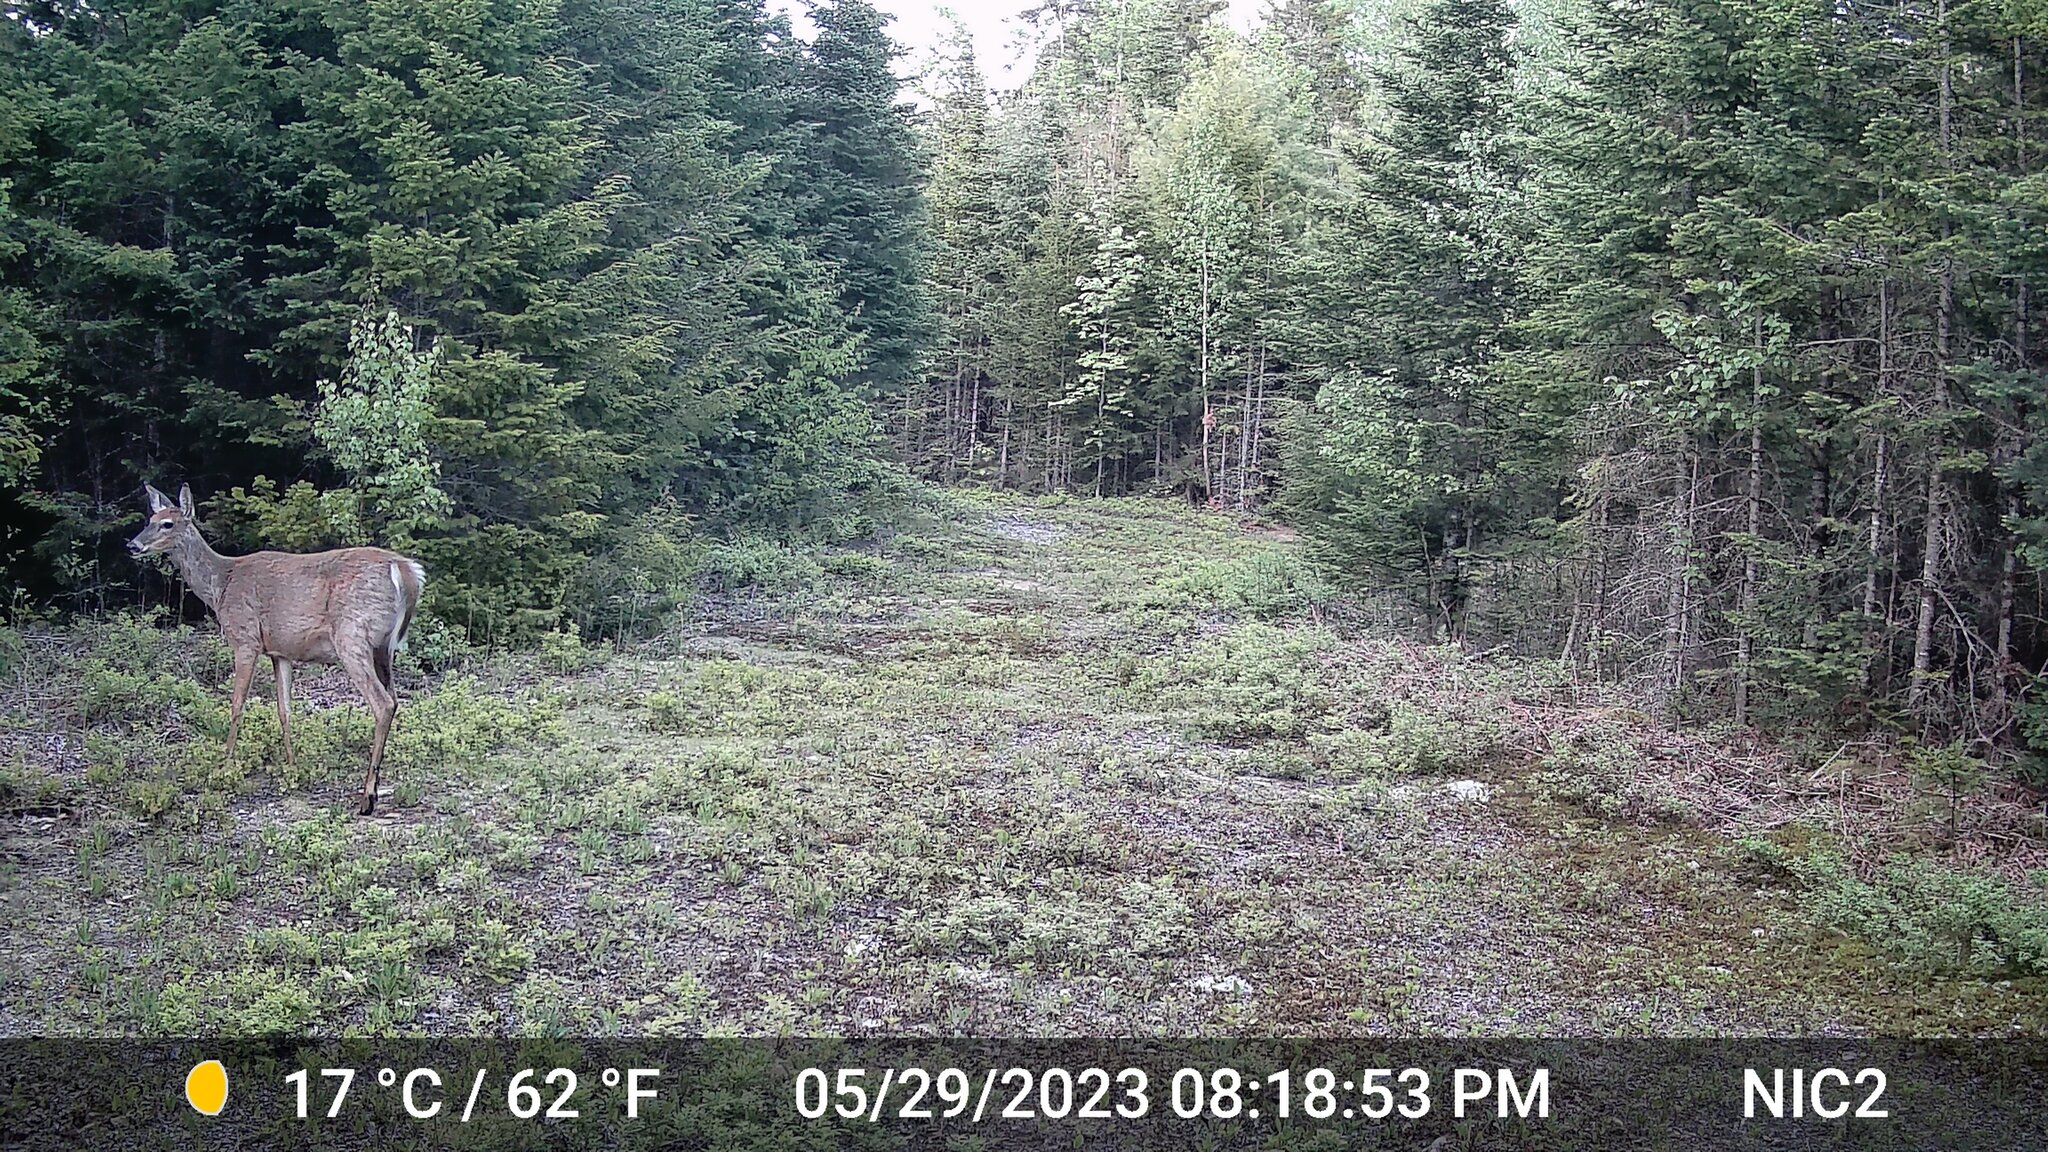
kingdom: Animalia
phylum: Chordata
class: Mammalia
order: Artiodactyla
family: Cervidae
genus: Odocoileus
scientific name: Odocoileus virginianus
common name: White-tailed deer
